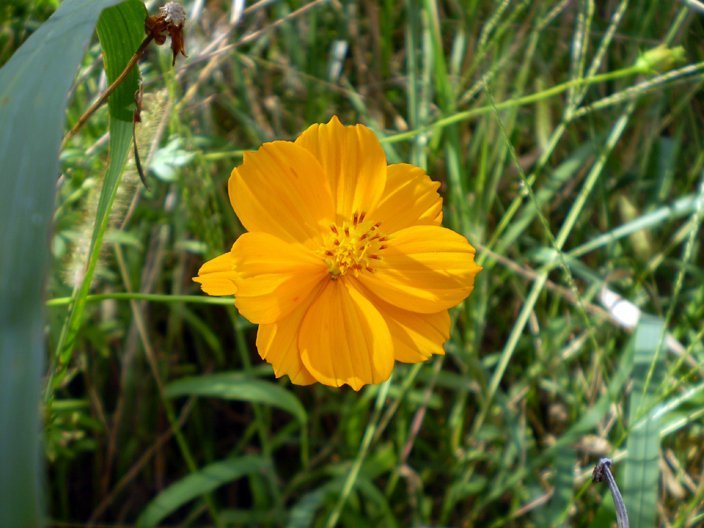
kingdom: Plantae
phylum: Tracheophyta
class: Magnoliopsida
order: Asterales
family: Asteraceae
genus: Cosmos
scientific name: Cosmos sulphureus
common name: Sulphur cosmos
